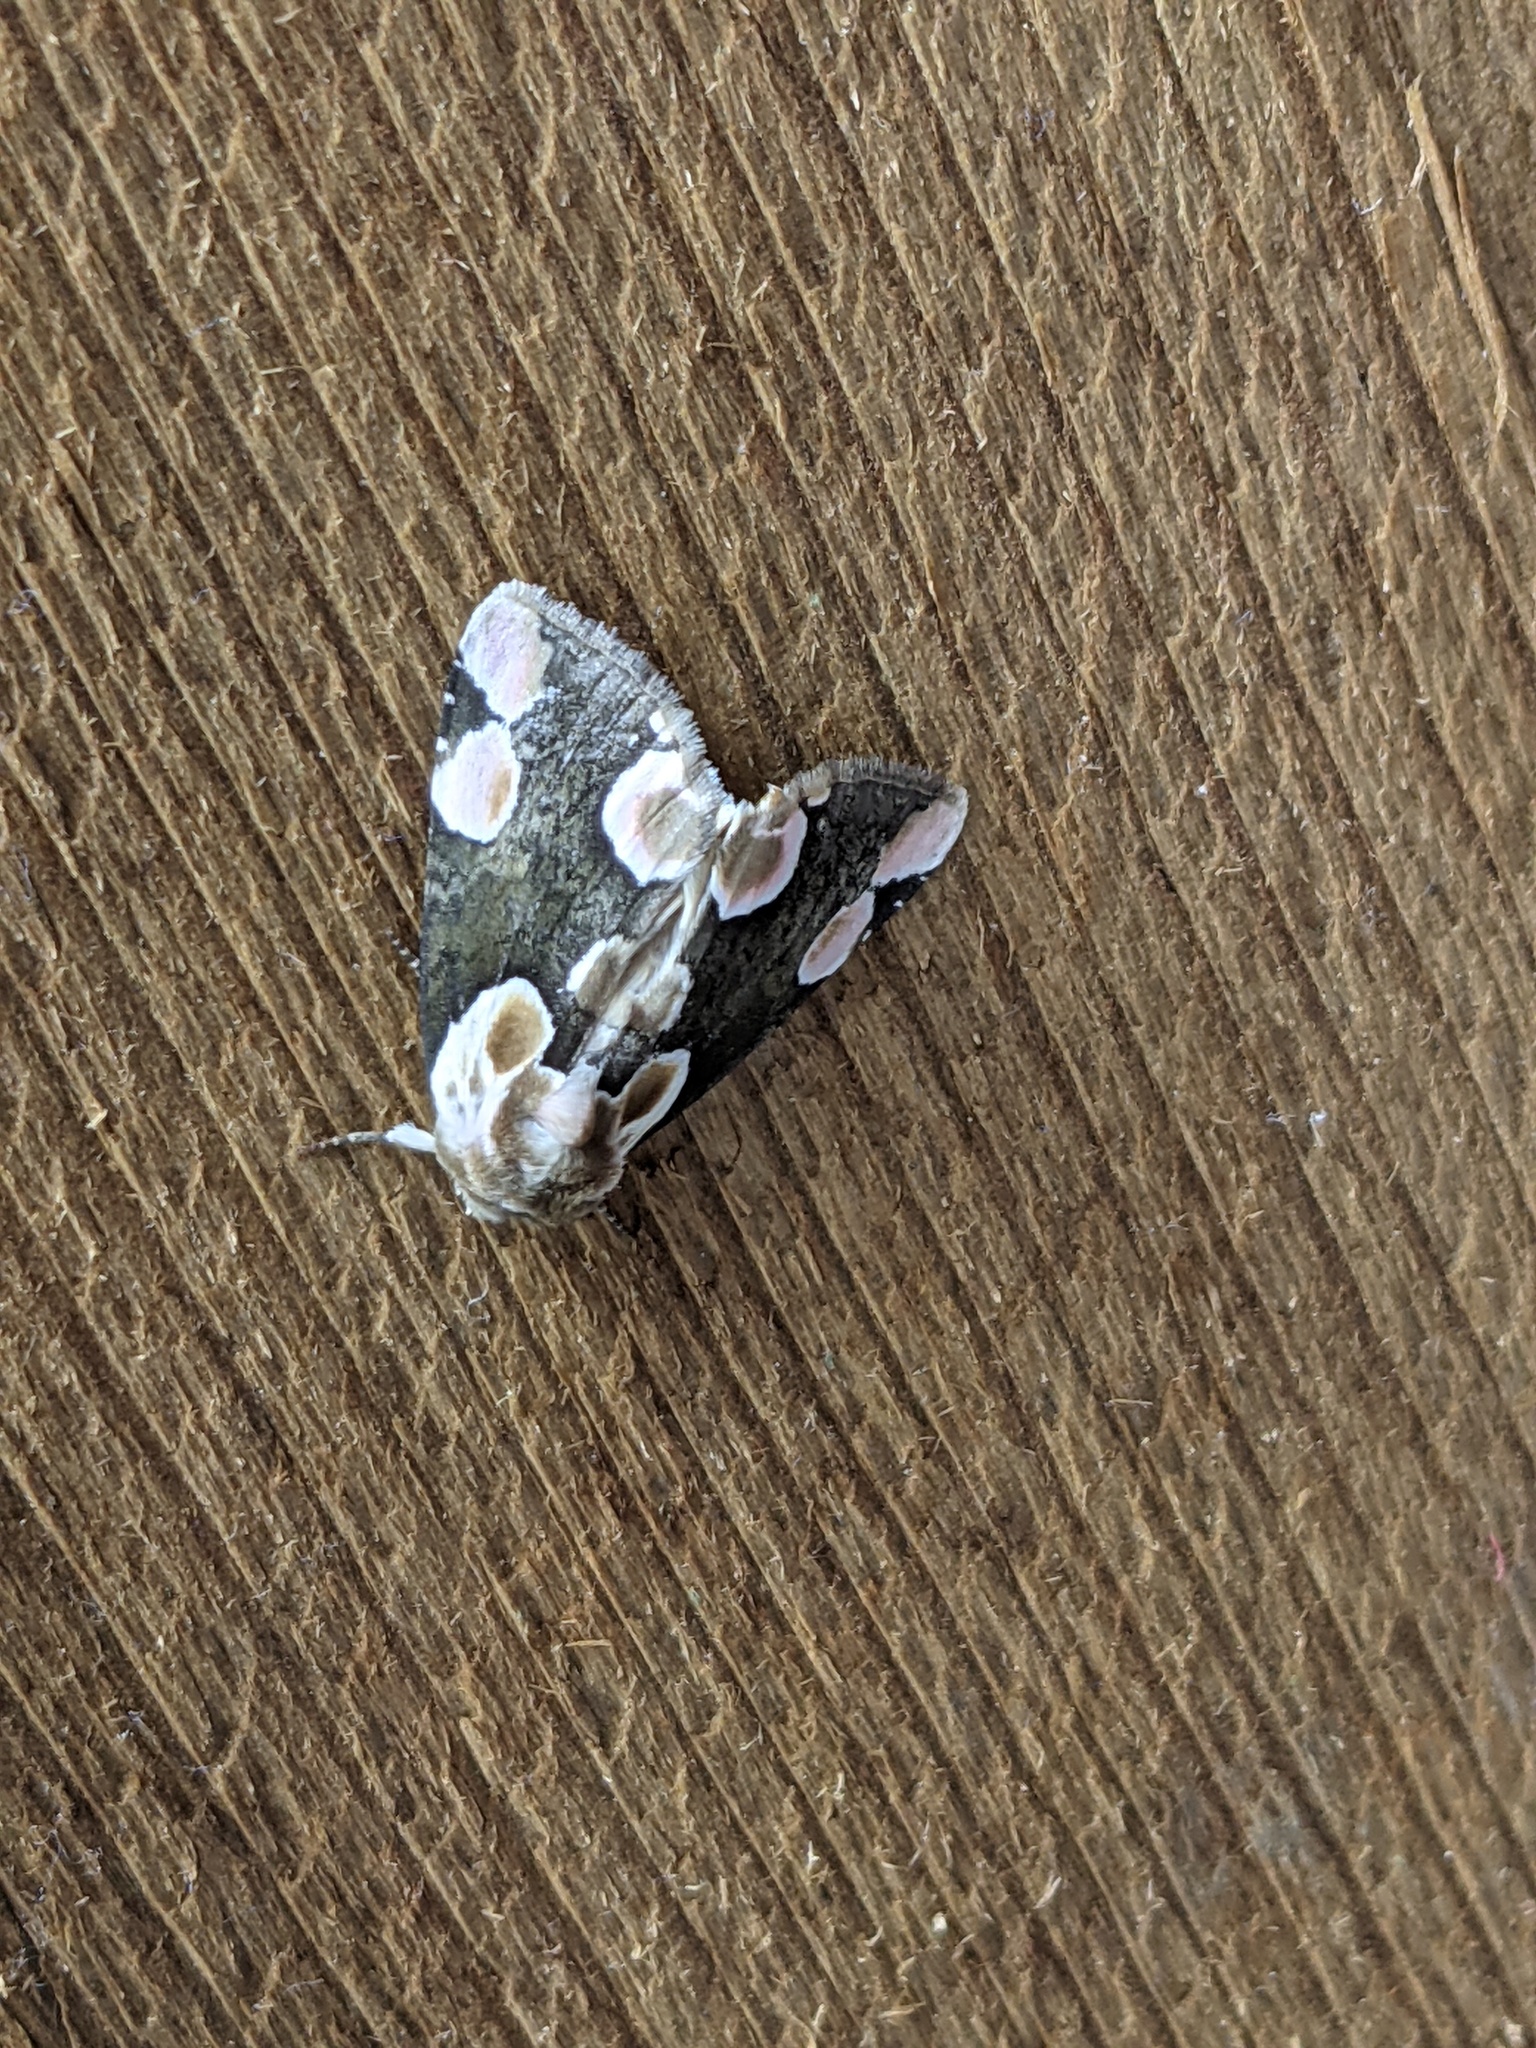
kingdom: Animalia
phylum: Arthropoda
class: Insecta
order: Lepidoptera
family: Drepanidae
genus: Thyatira
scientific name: Thyatira batis
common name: Peach blossom
